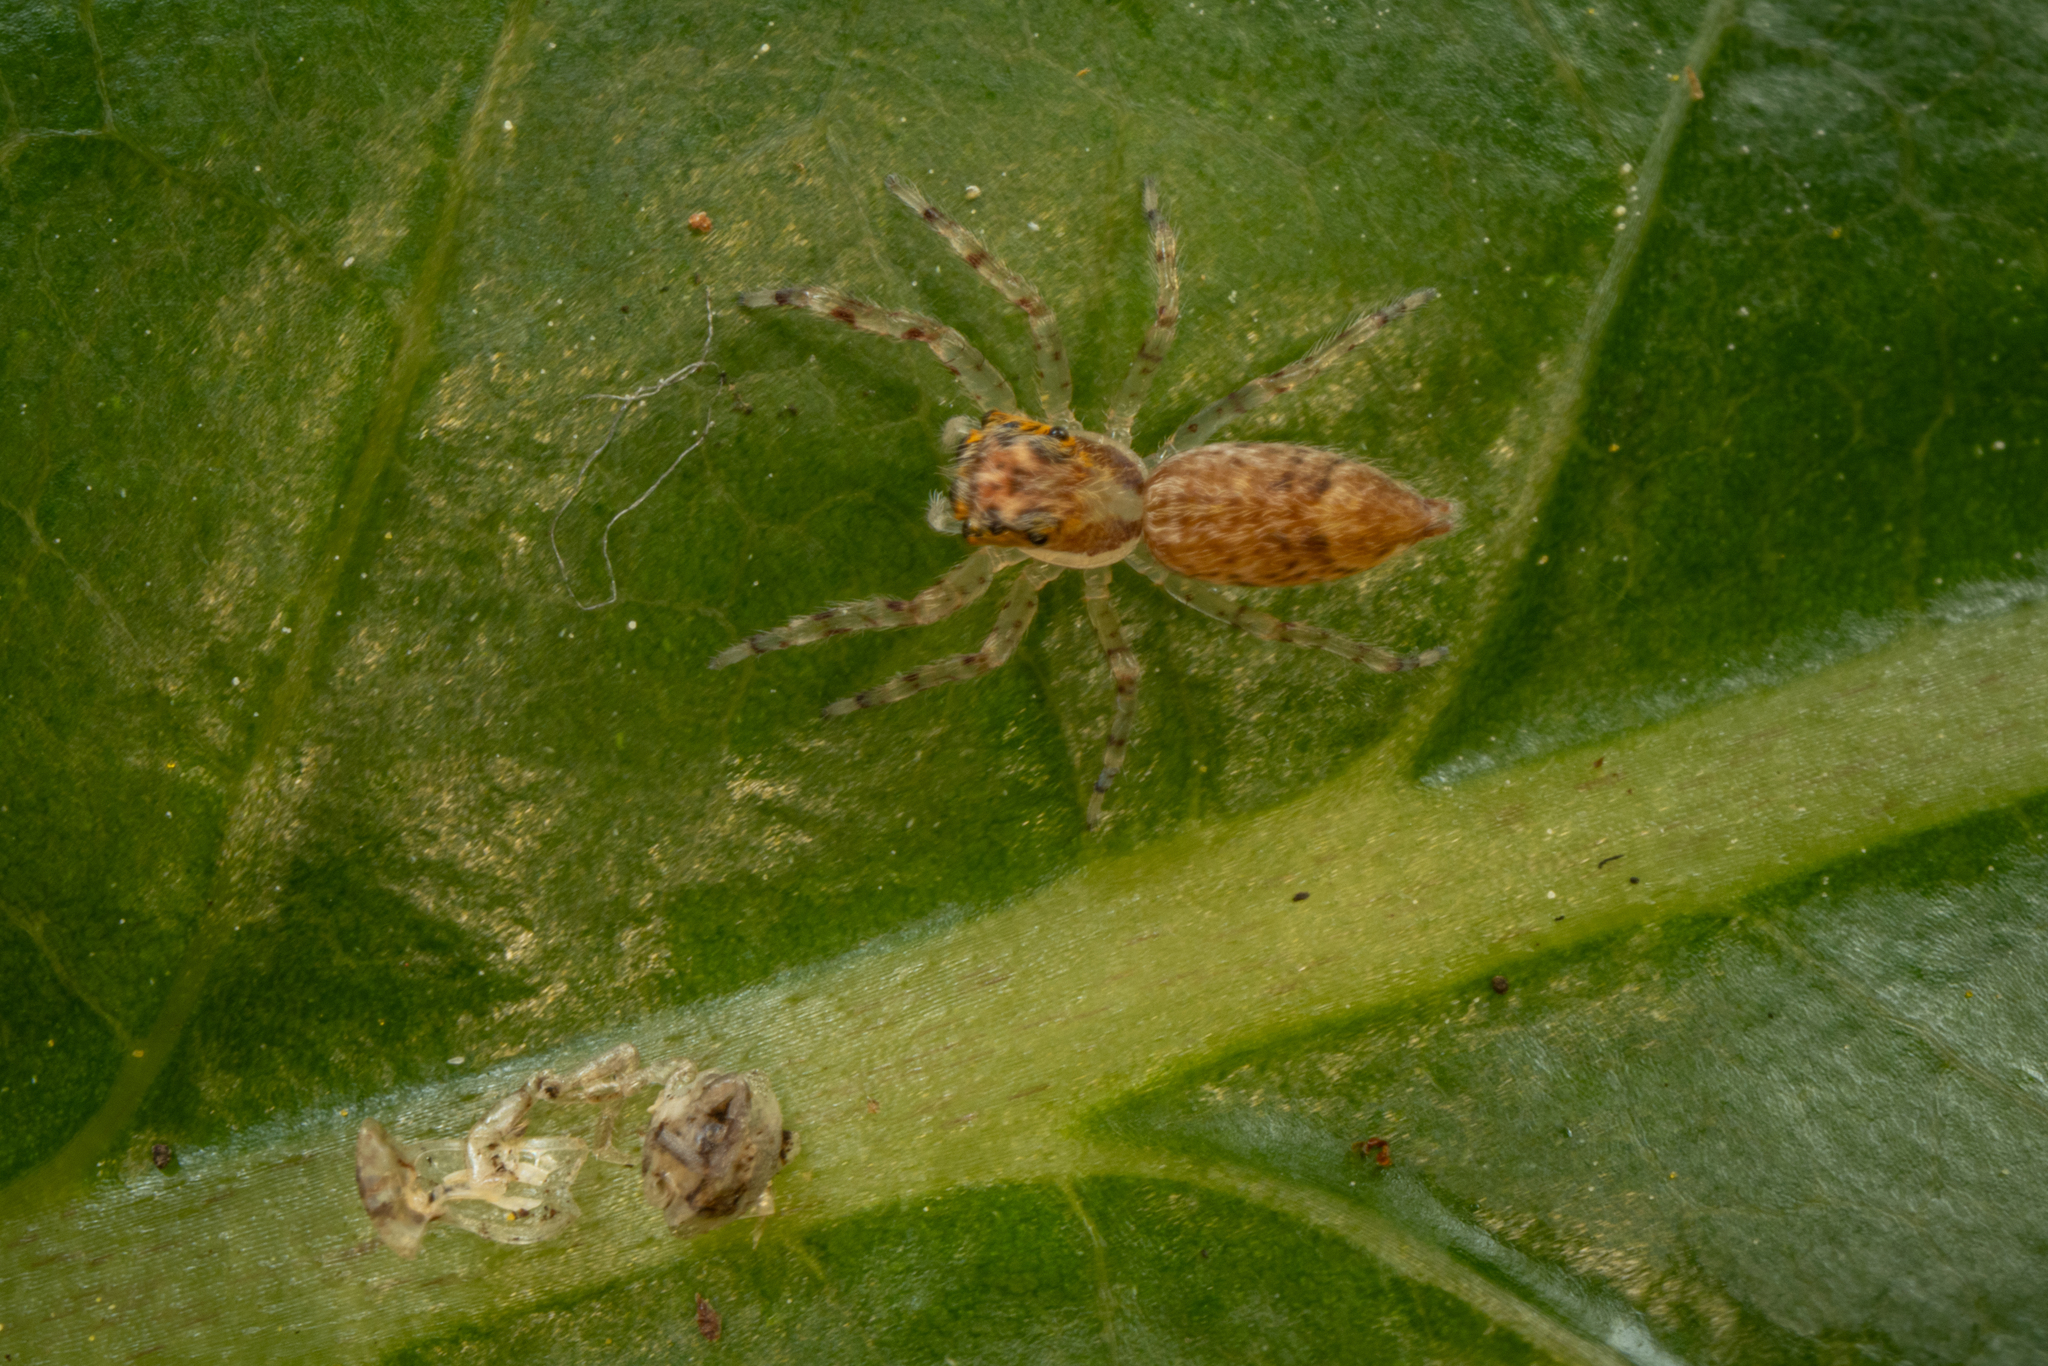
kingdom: Animalia
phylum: Arthropoda
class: Arachnida
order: Araneae
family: Salticidae
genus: Helpis
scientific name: Helpis minitabunda
